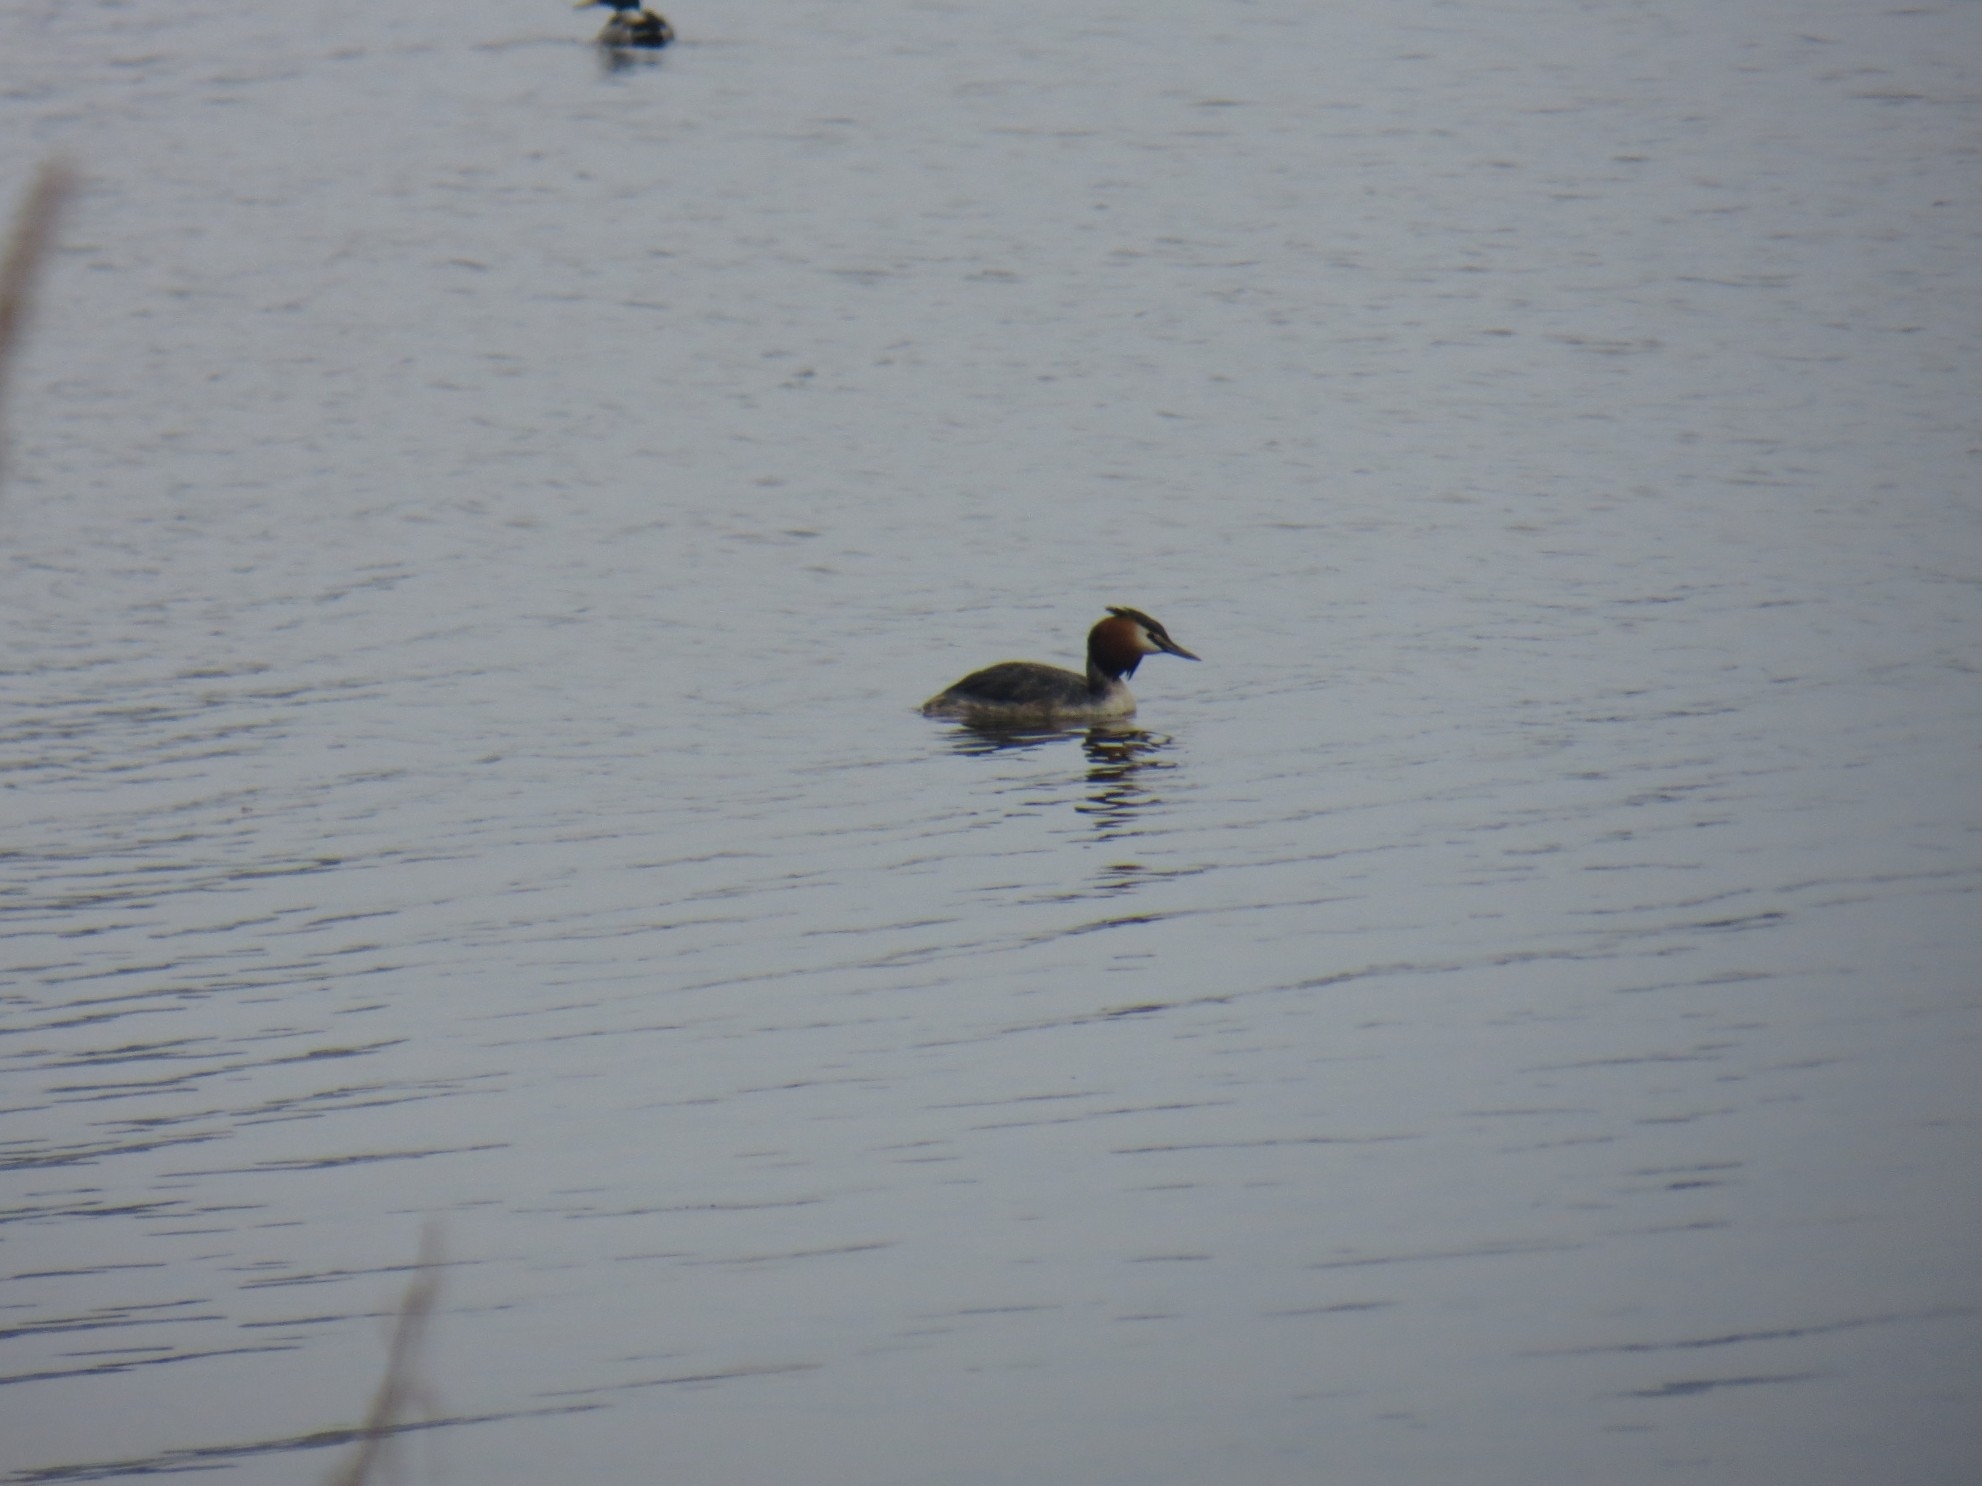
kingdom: Animalia
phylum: Chordata
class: Aves
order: Podicipediformes
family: Podicipedidae
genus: Podiceps
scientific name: Podiceps cristatus
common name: Great crested grebe
